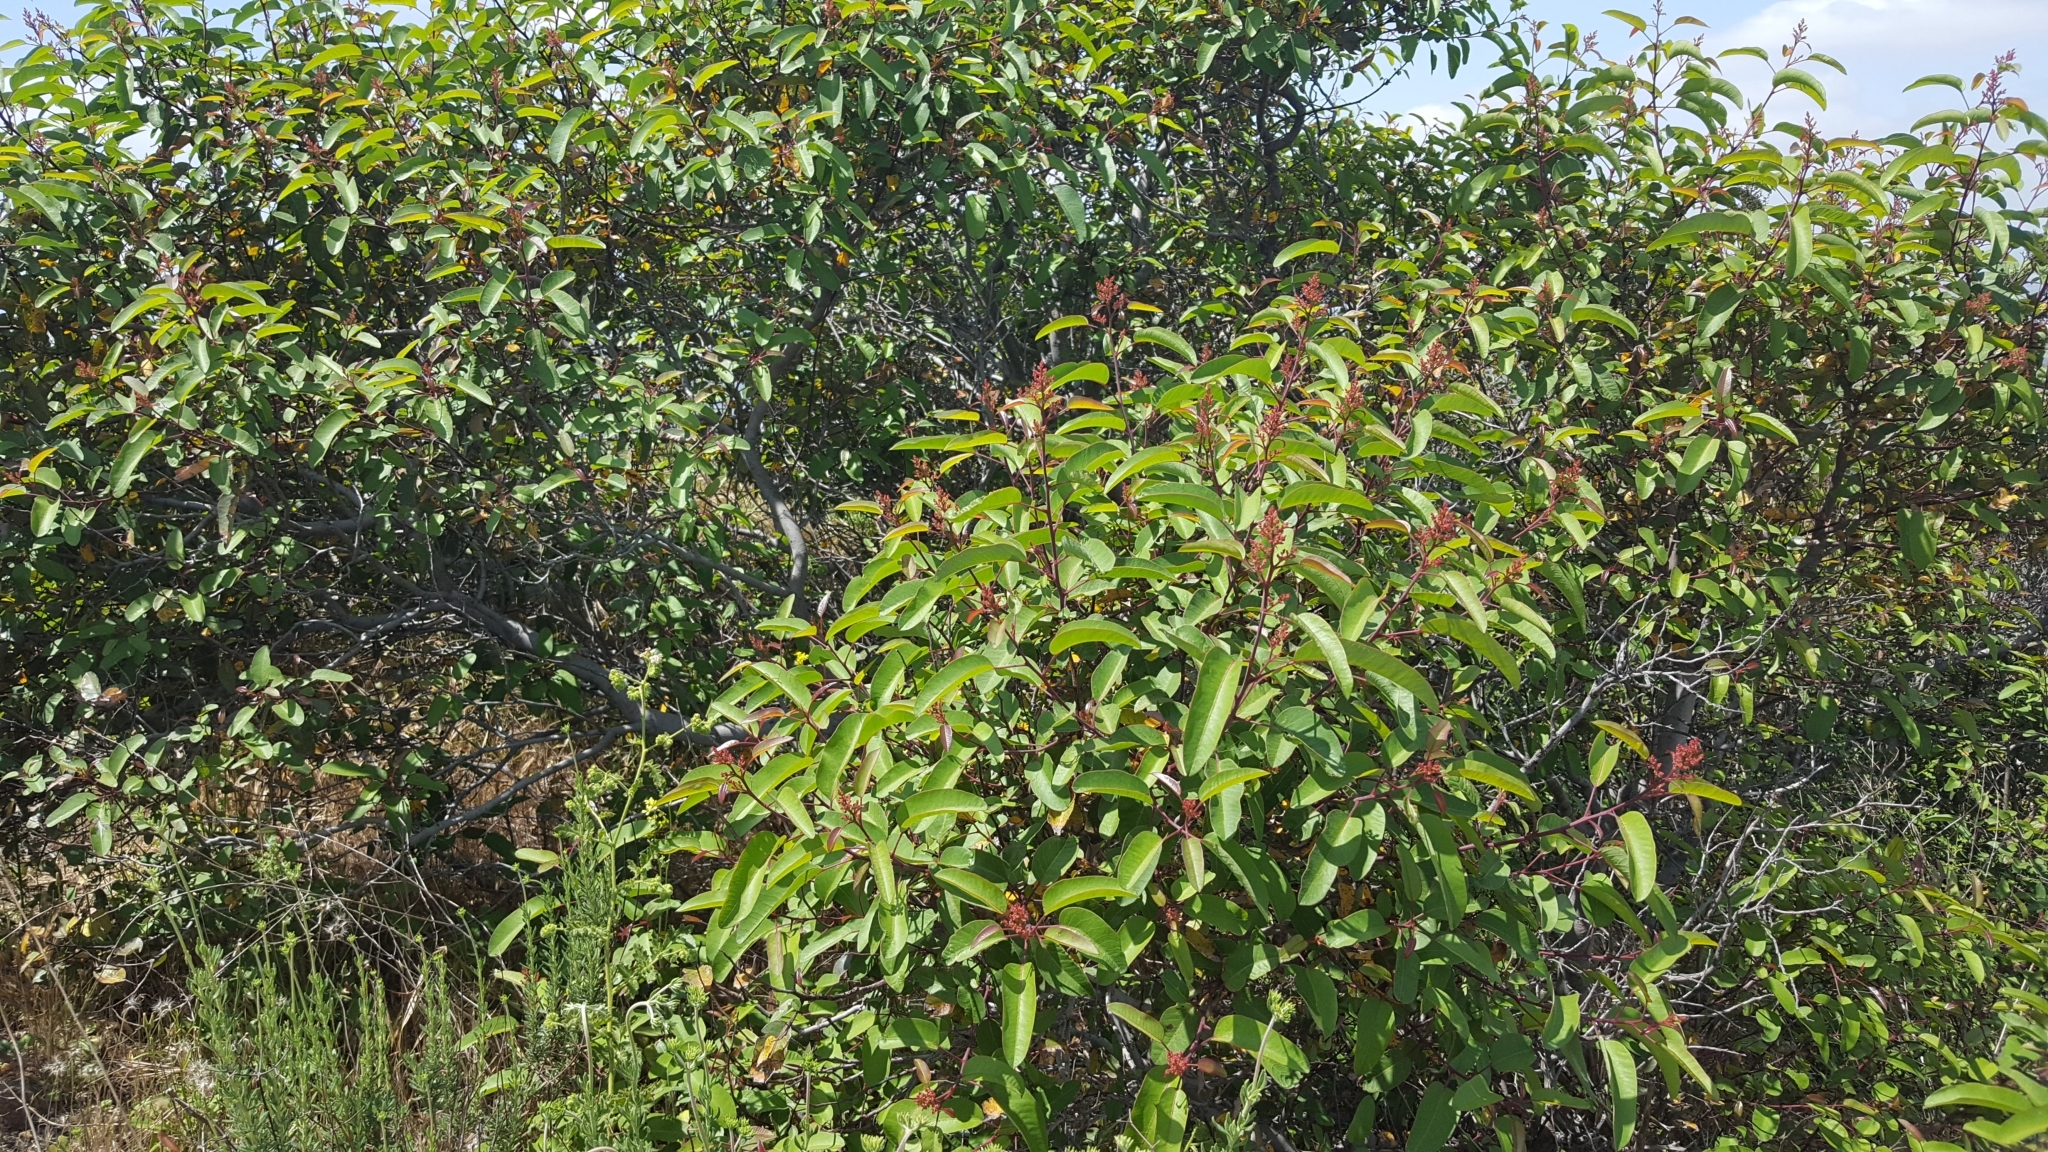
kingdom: Plantae
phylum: Tracheophyta
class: Magnoliopsida
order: Sapindales
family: Anacardiaceae
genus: Malosma
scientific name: Malosma laurina
